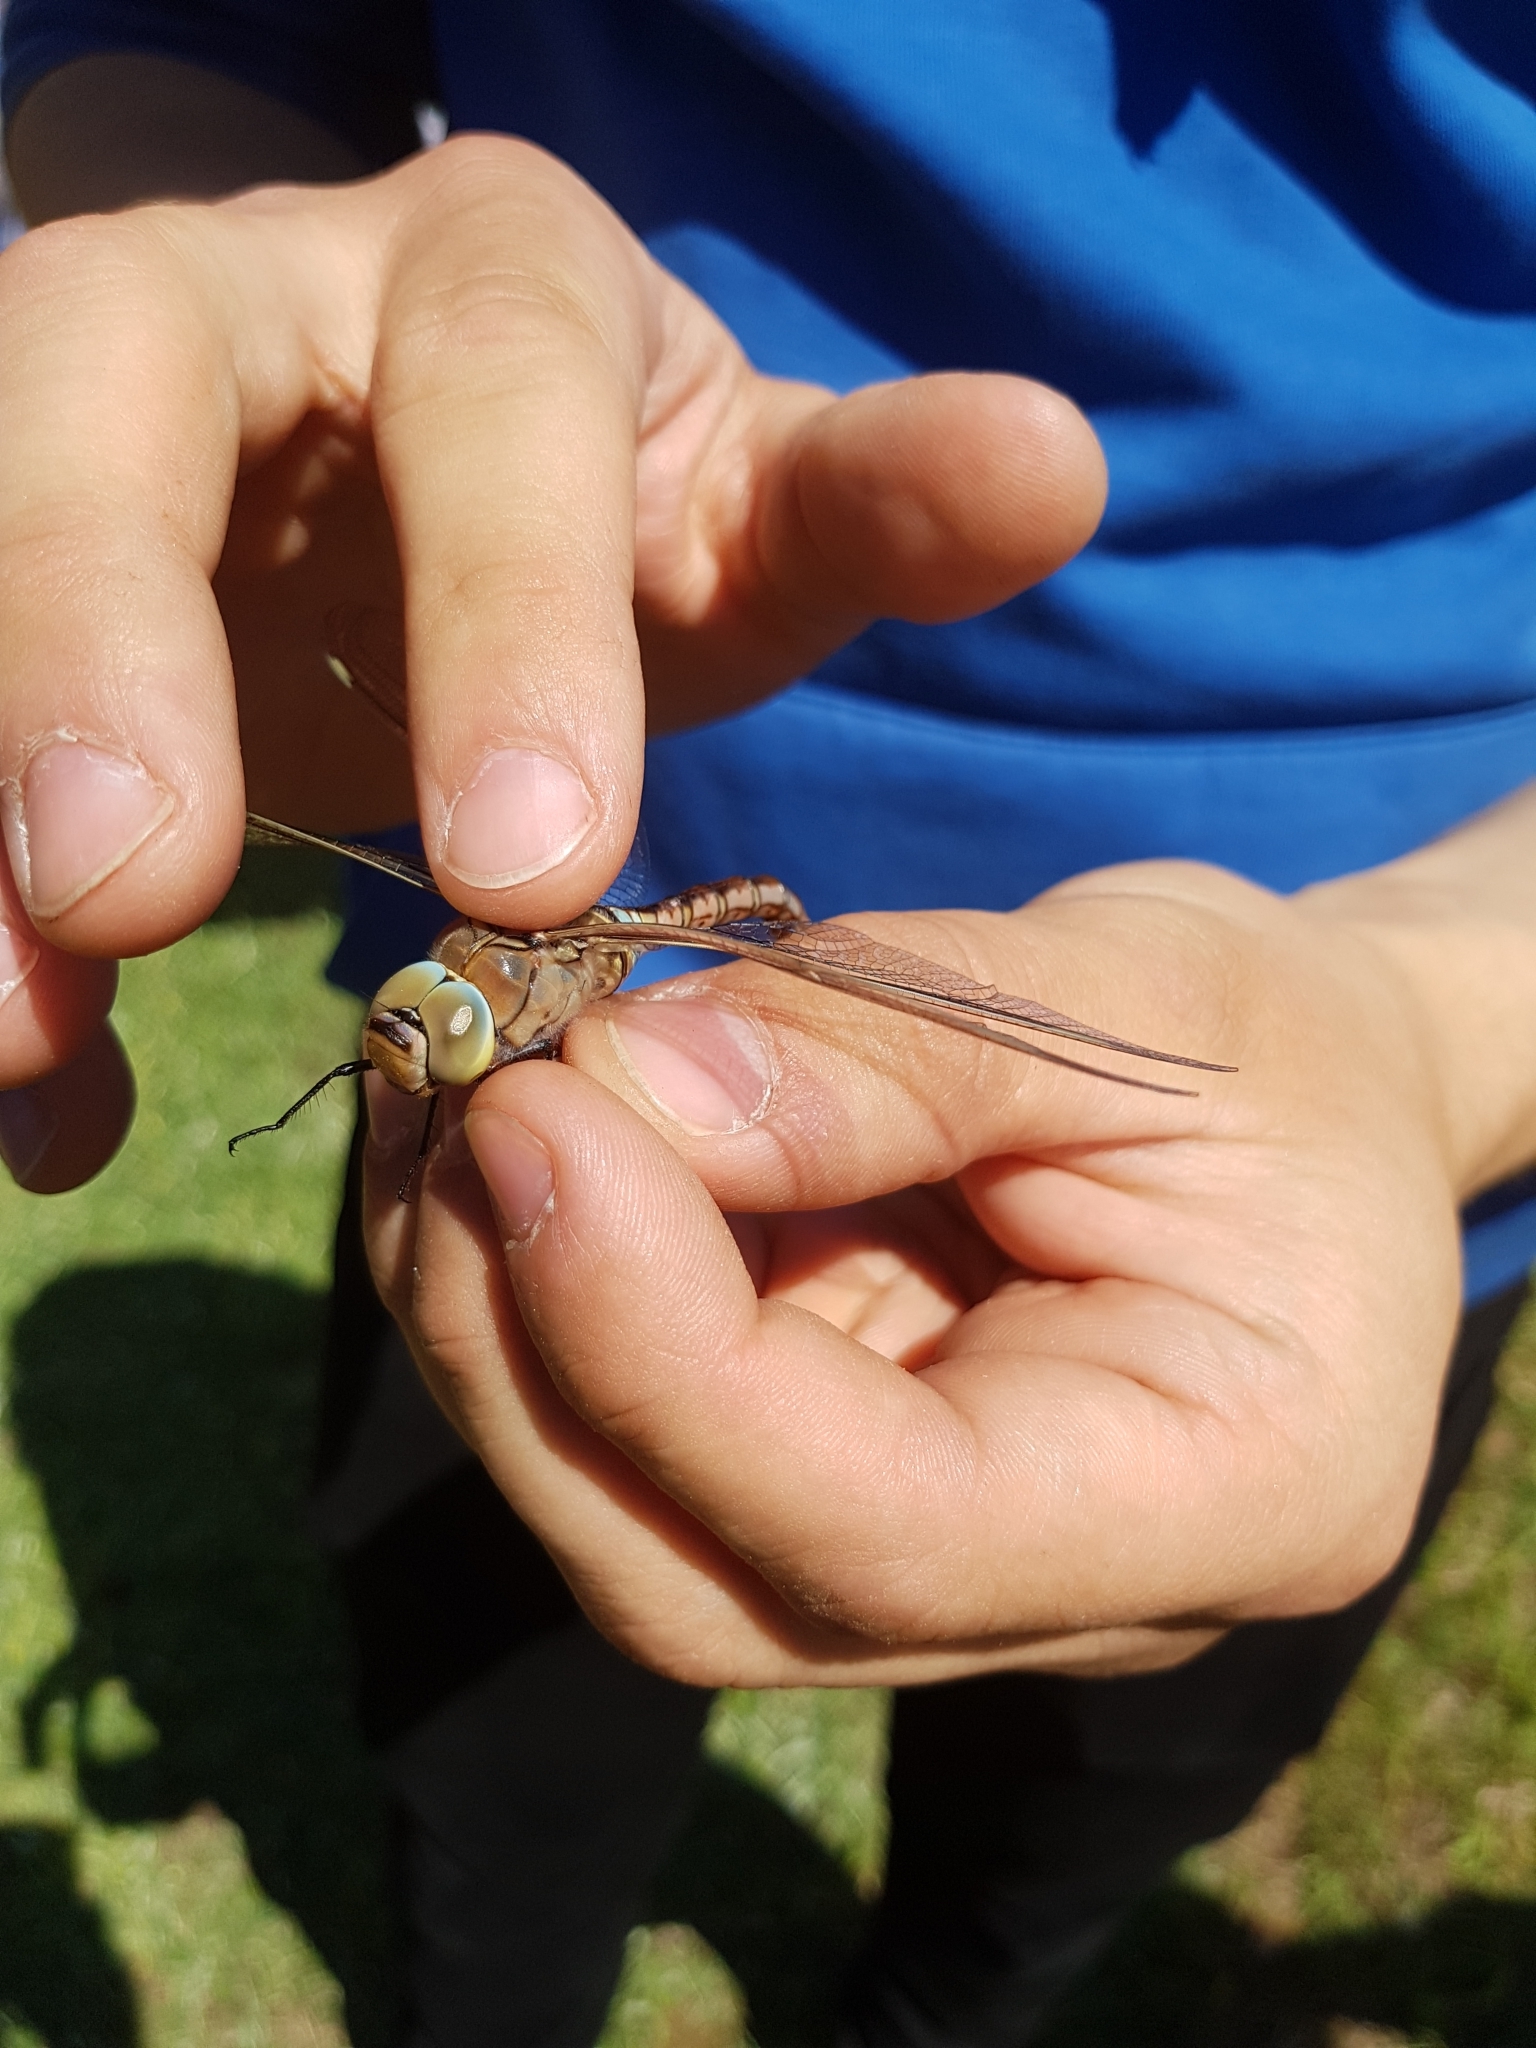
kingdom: Animalia
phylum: Arthropoda
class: Insecta
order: Odonata
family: Aeshnidae
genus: Anax
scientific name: Anax parthenope
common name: Lesser emperor
